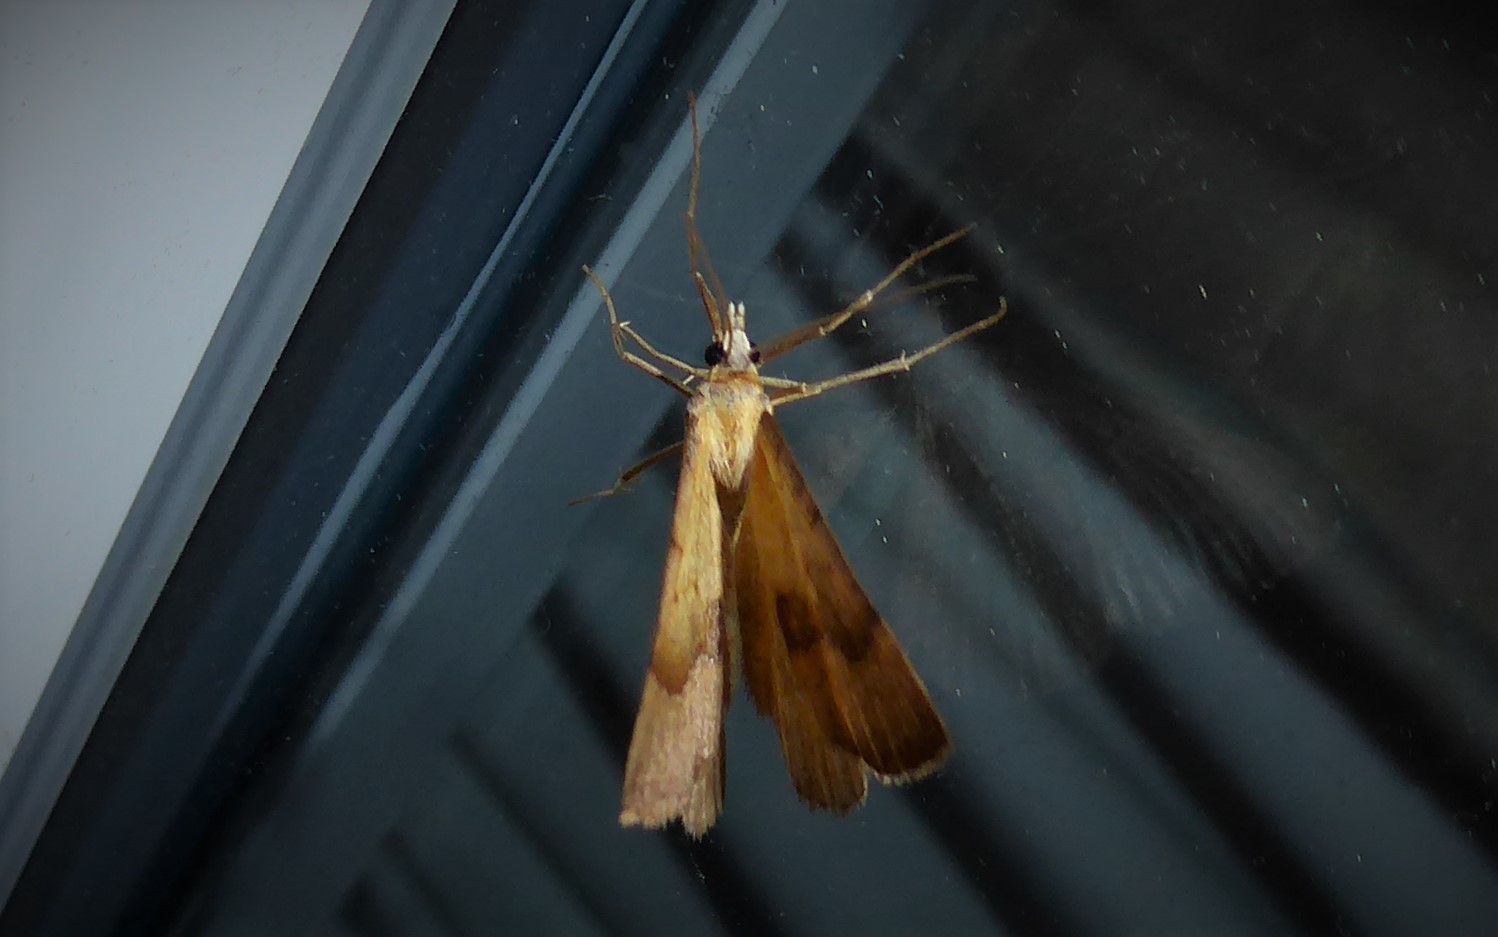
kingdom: Animalia
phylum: Arthropoda
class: Insecta
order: Lepidoptera
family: Geometridae
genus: Anachloris
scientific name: Anachloris subochraria
